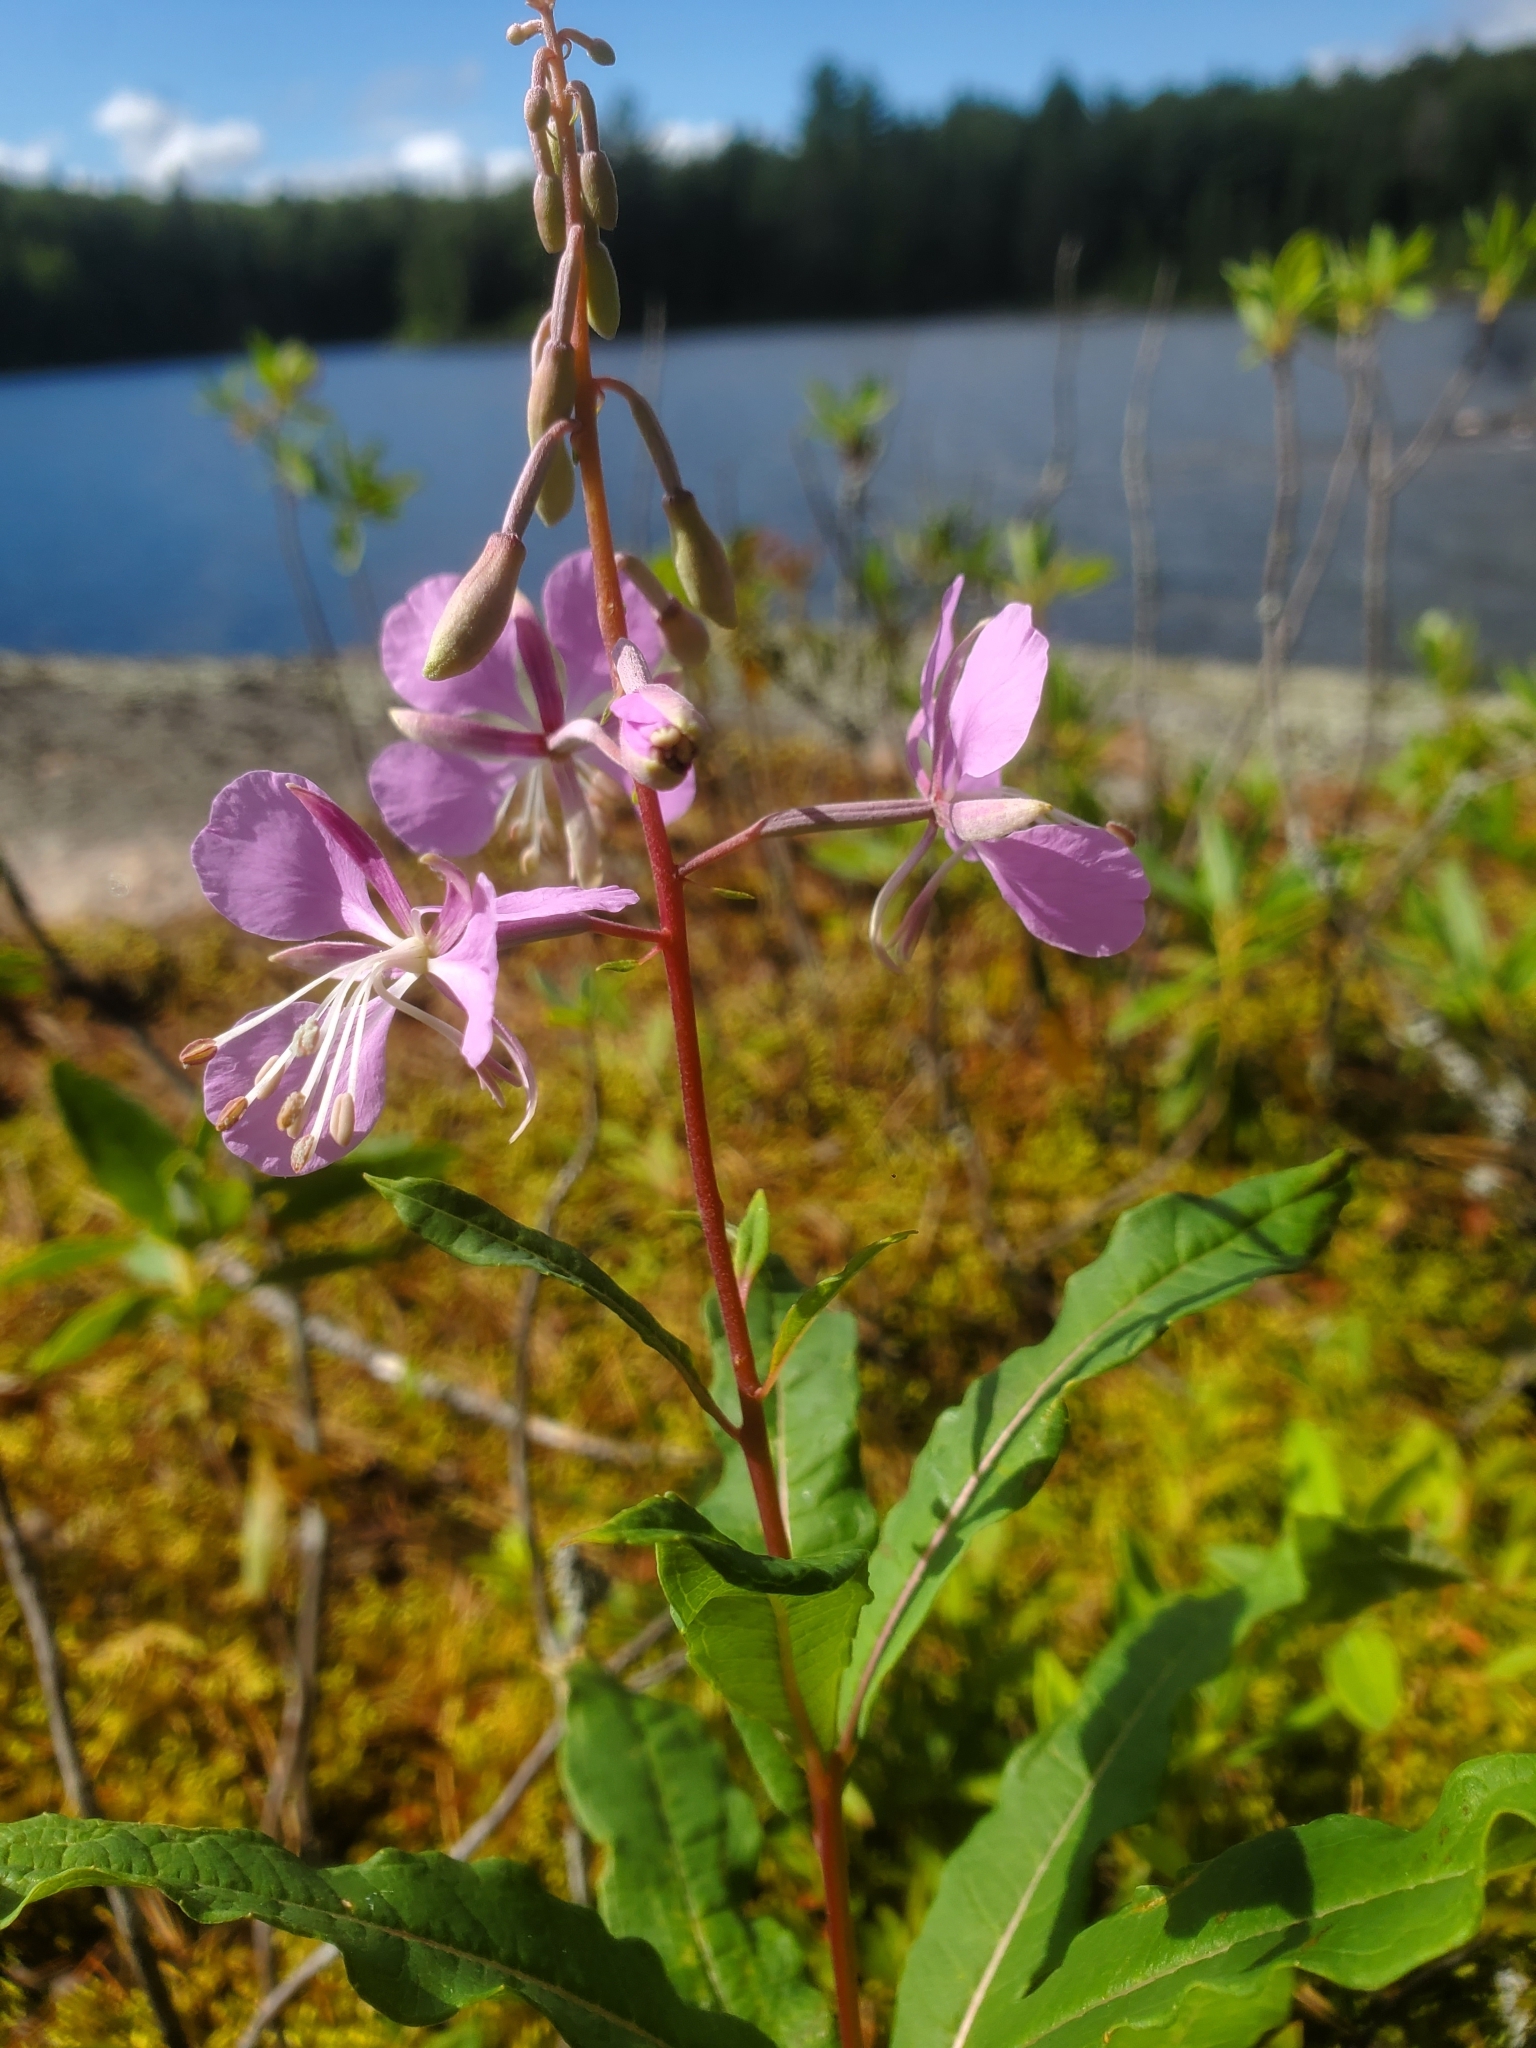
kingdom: Plantae
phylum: Tracheophyta
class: Magnoliopsida
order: Myrtales
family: Onagraceae
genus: Chamaenerion
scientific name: Chamaenerion angustifolium
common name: Fireweed
